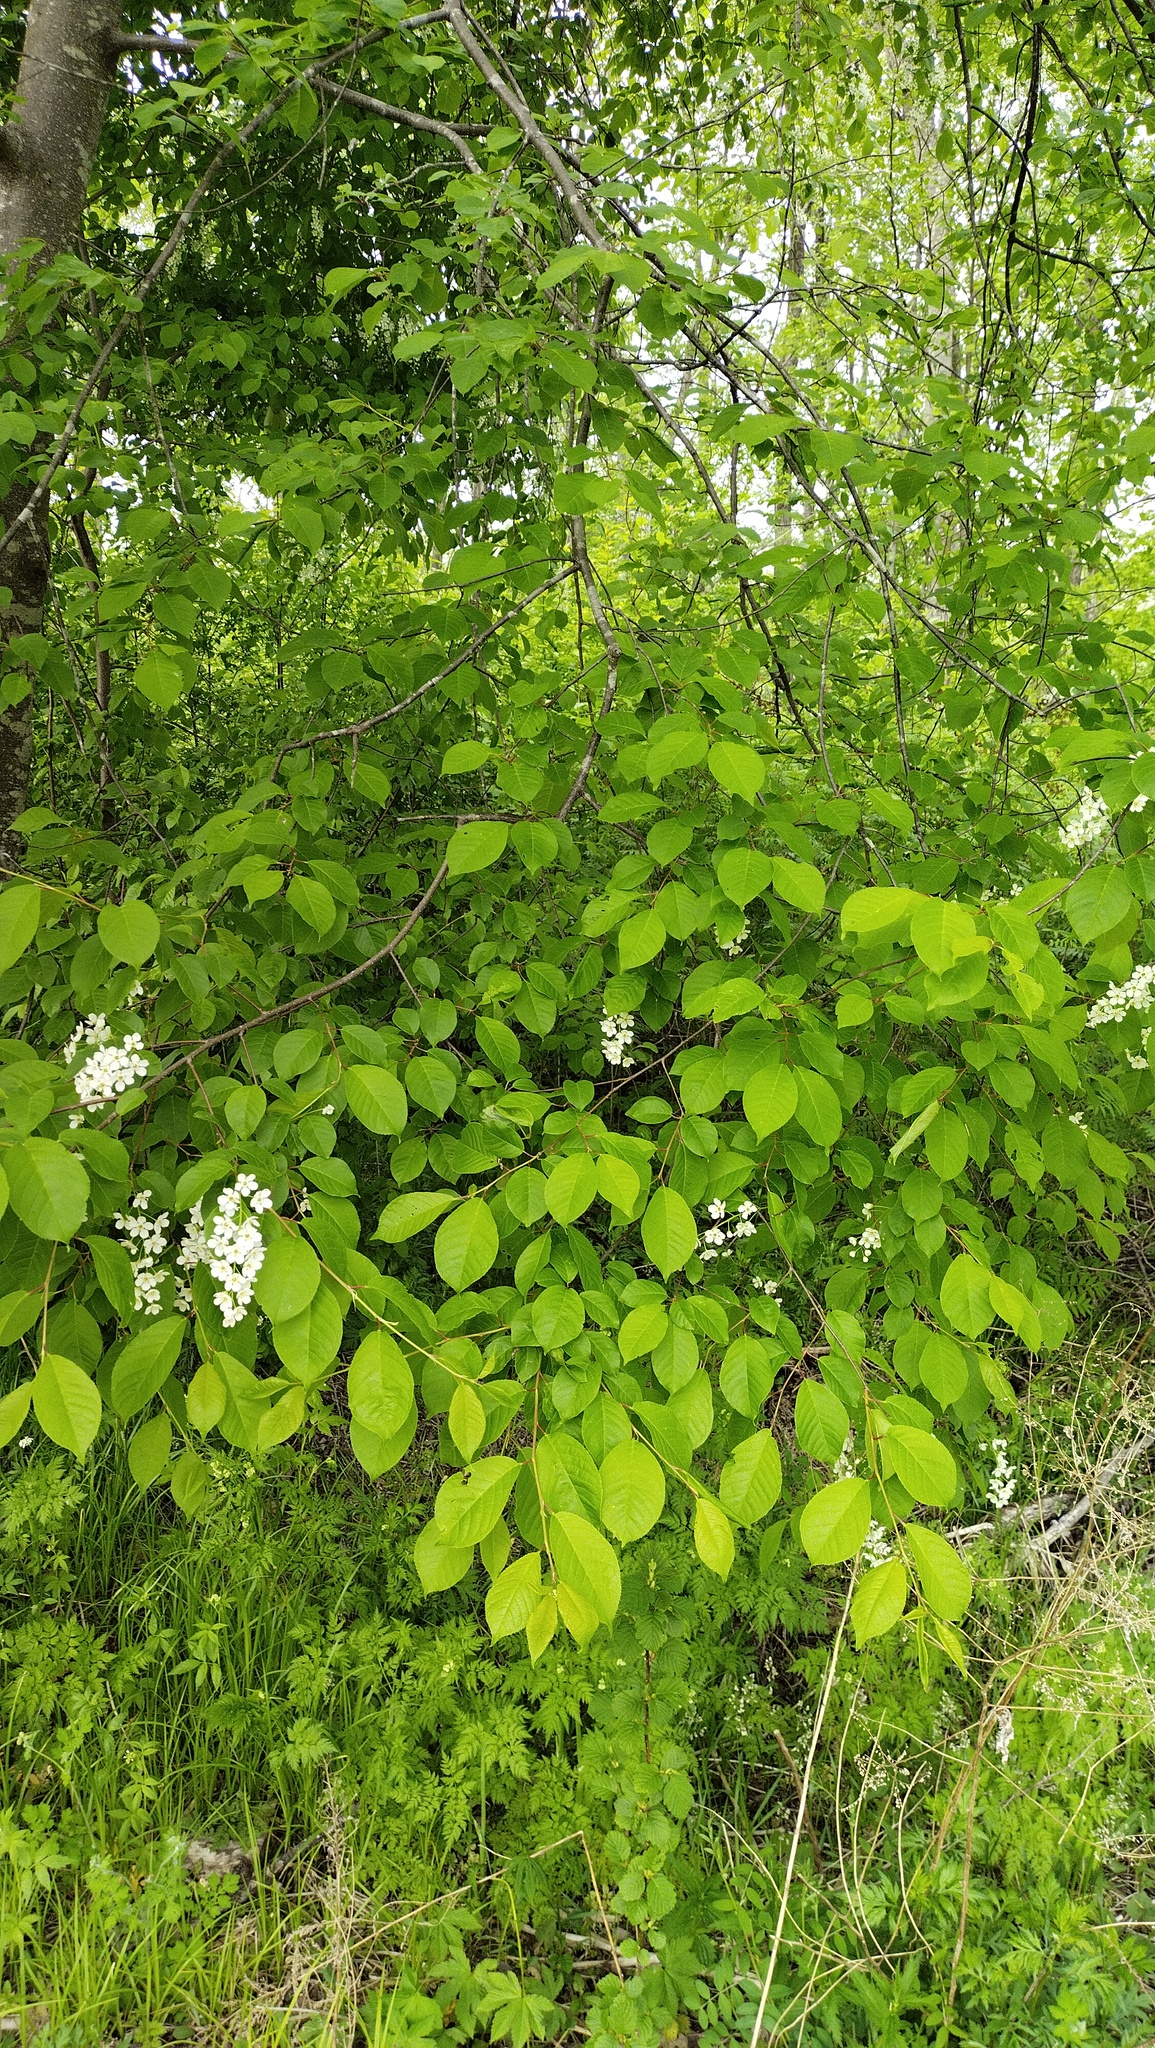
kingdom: Plantae
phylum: Tracheophyta
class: Magnoliopsida
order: Rosales
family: Rosaceae
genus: Prunus
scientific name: Prunus padus
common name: Bird cherry
